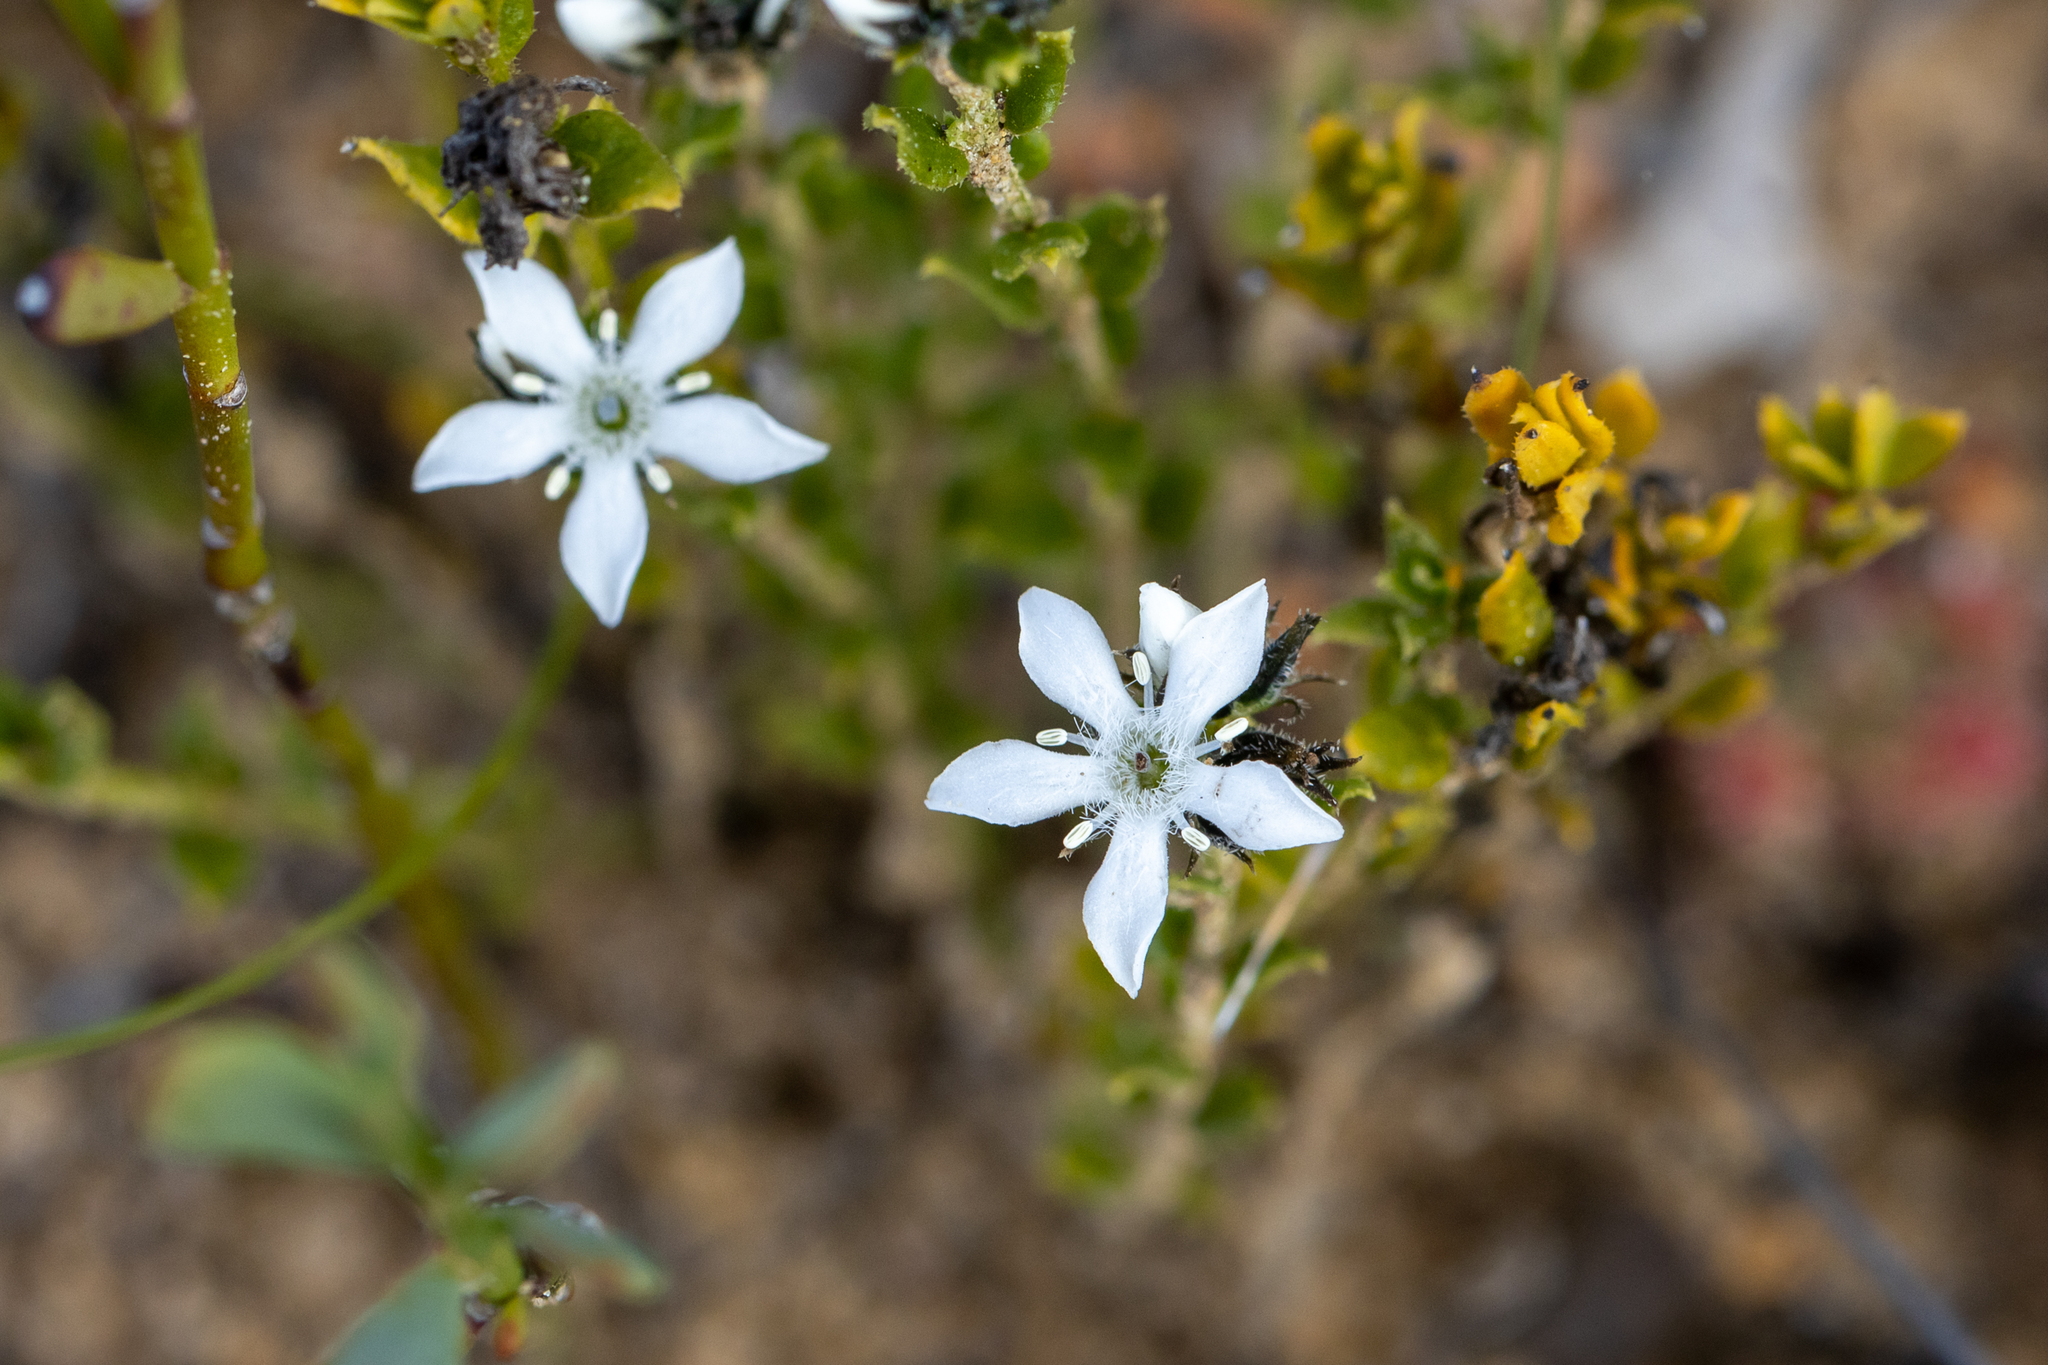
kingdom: Plantae
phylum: Tracheophyta
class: Magnoliopsida
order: Gentianales
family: Loganiaceae
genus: Orianthera
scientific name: Orianthera serpyllifolia
